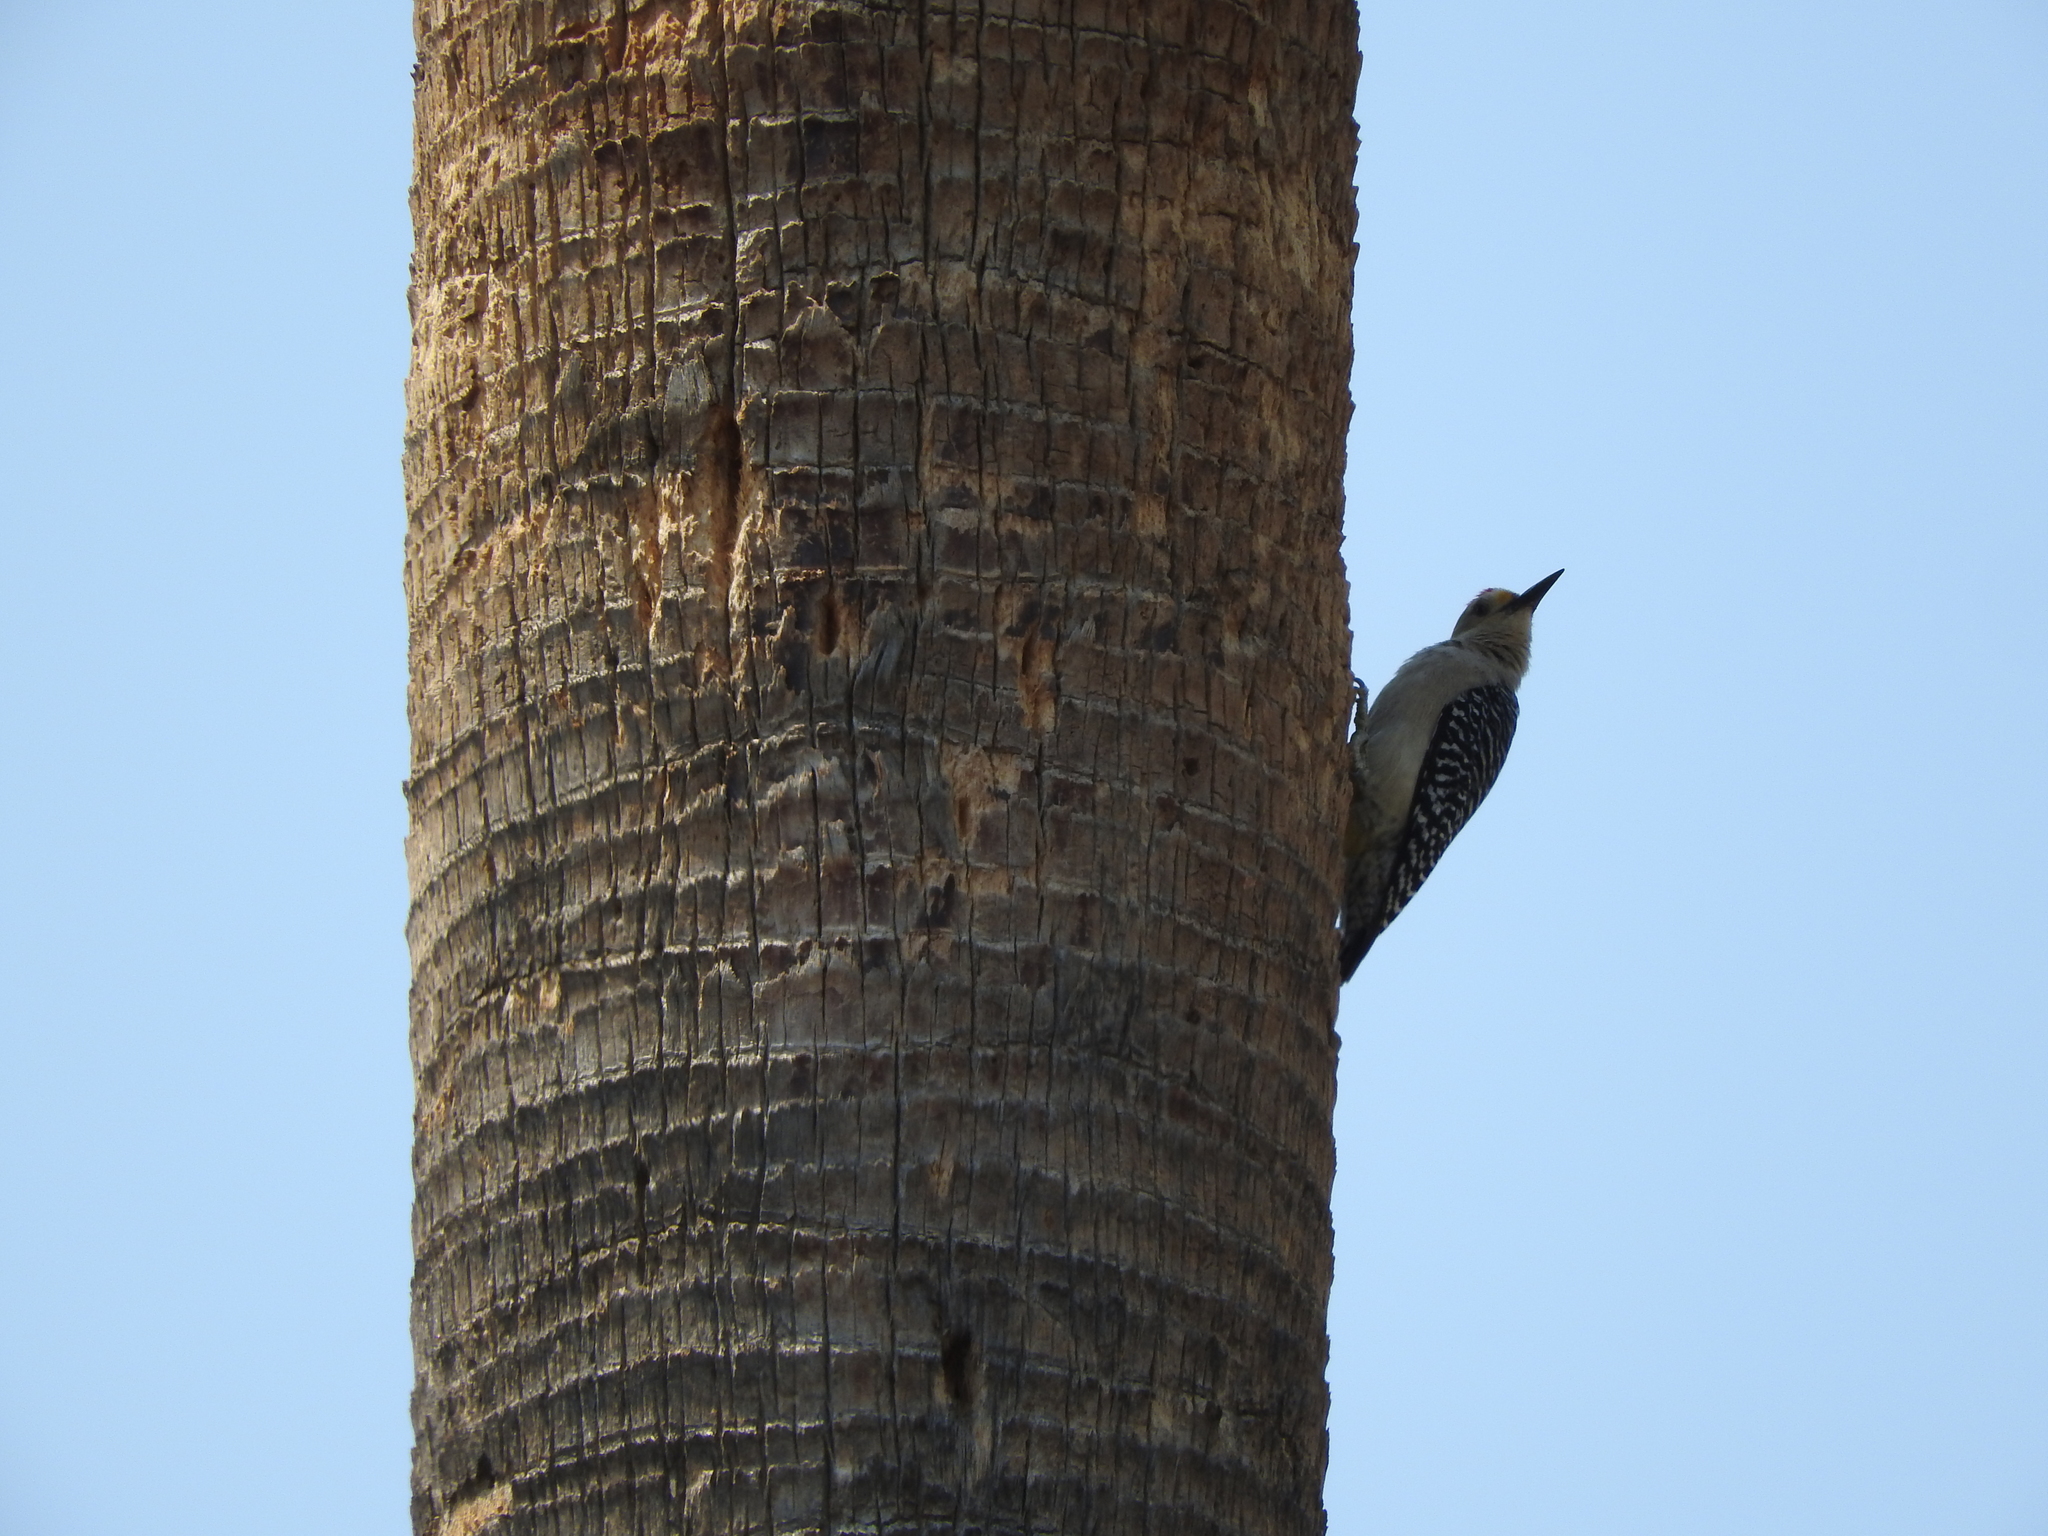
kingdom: Animalia
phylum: Chordata
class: Aves
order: Piciformes
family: Picidae
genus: Melanerpes
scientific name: Melanerpes aurifrons
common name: Golden-fronted woodpecker
